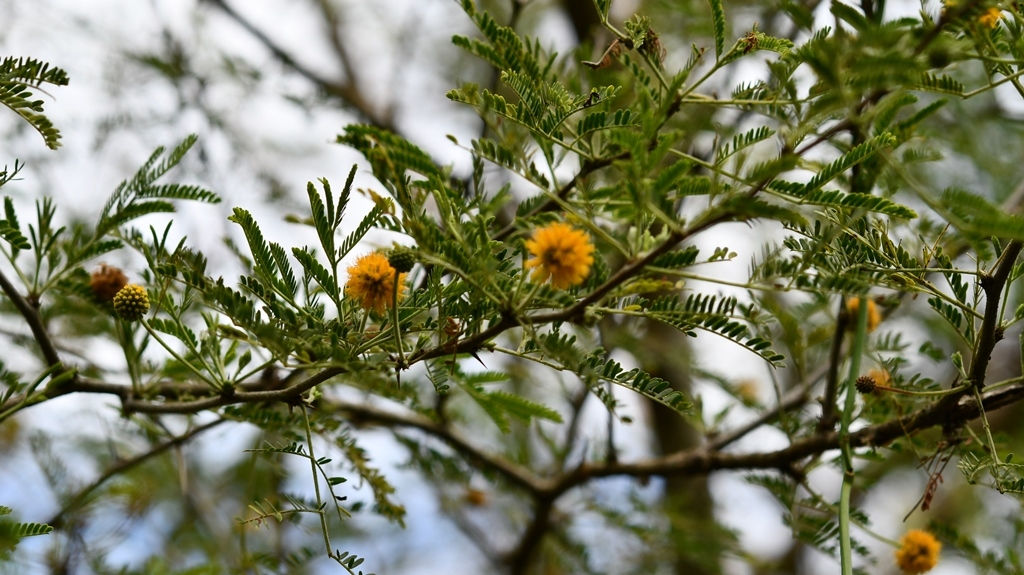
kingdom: Plantae
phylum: Tracheophyta
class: Magnoliopsida
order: Fabales
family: Fabaceae
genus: Vachellia
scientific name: Vachellia campechiana
